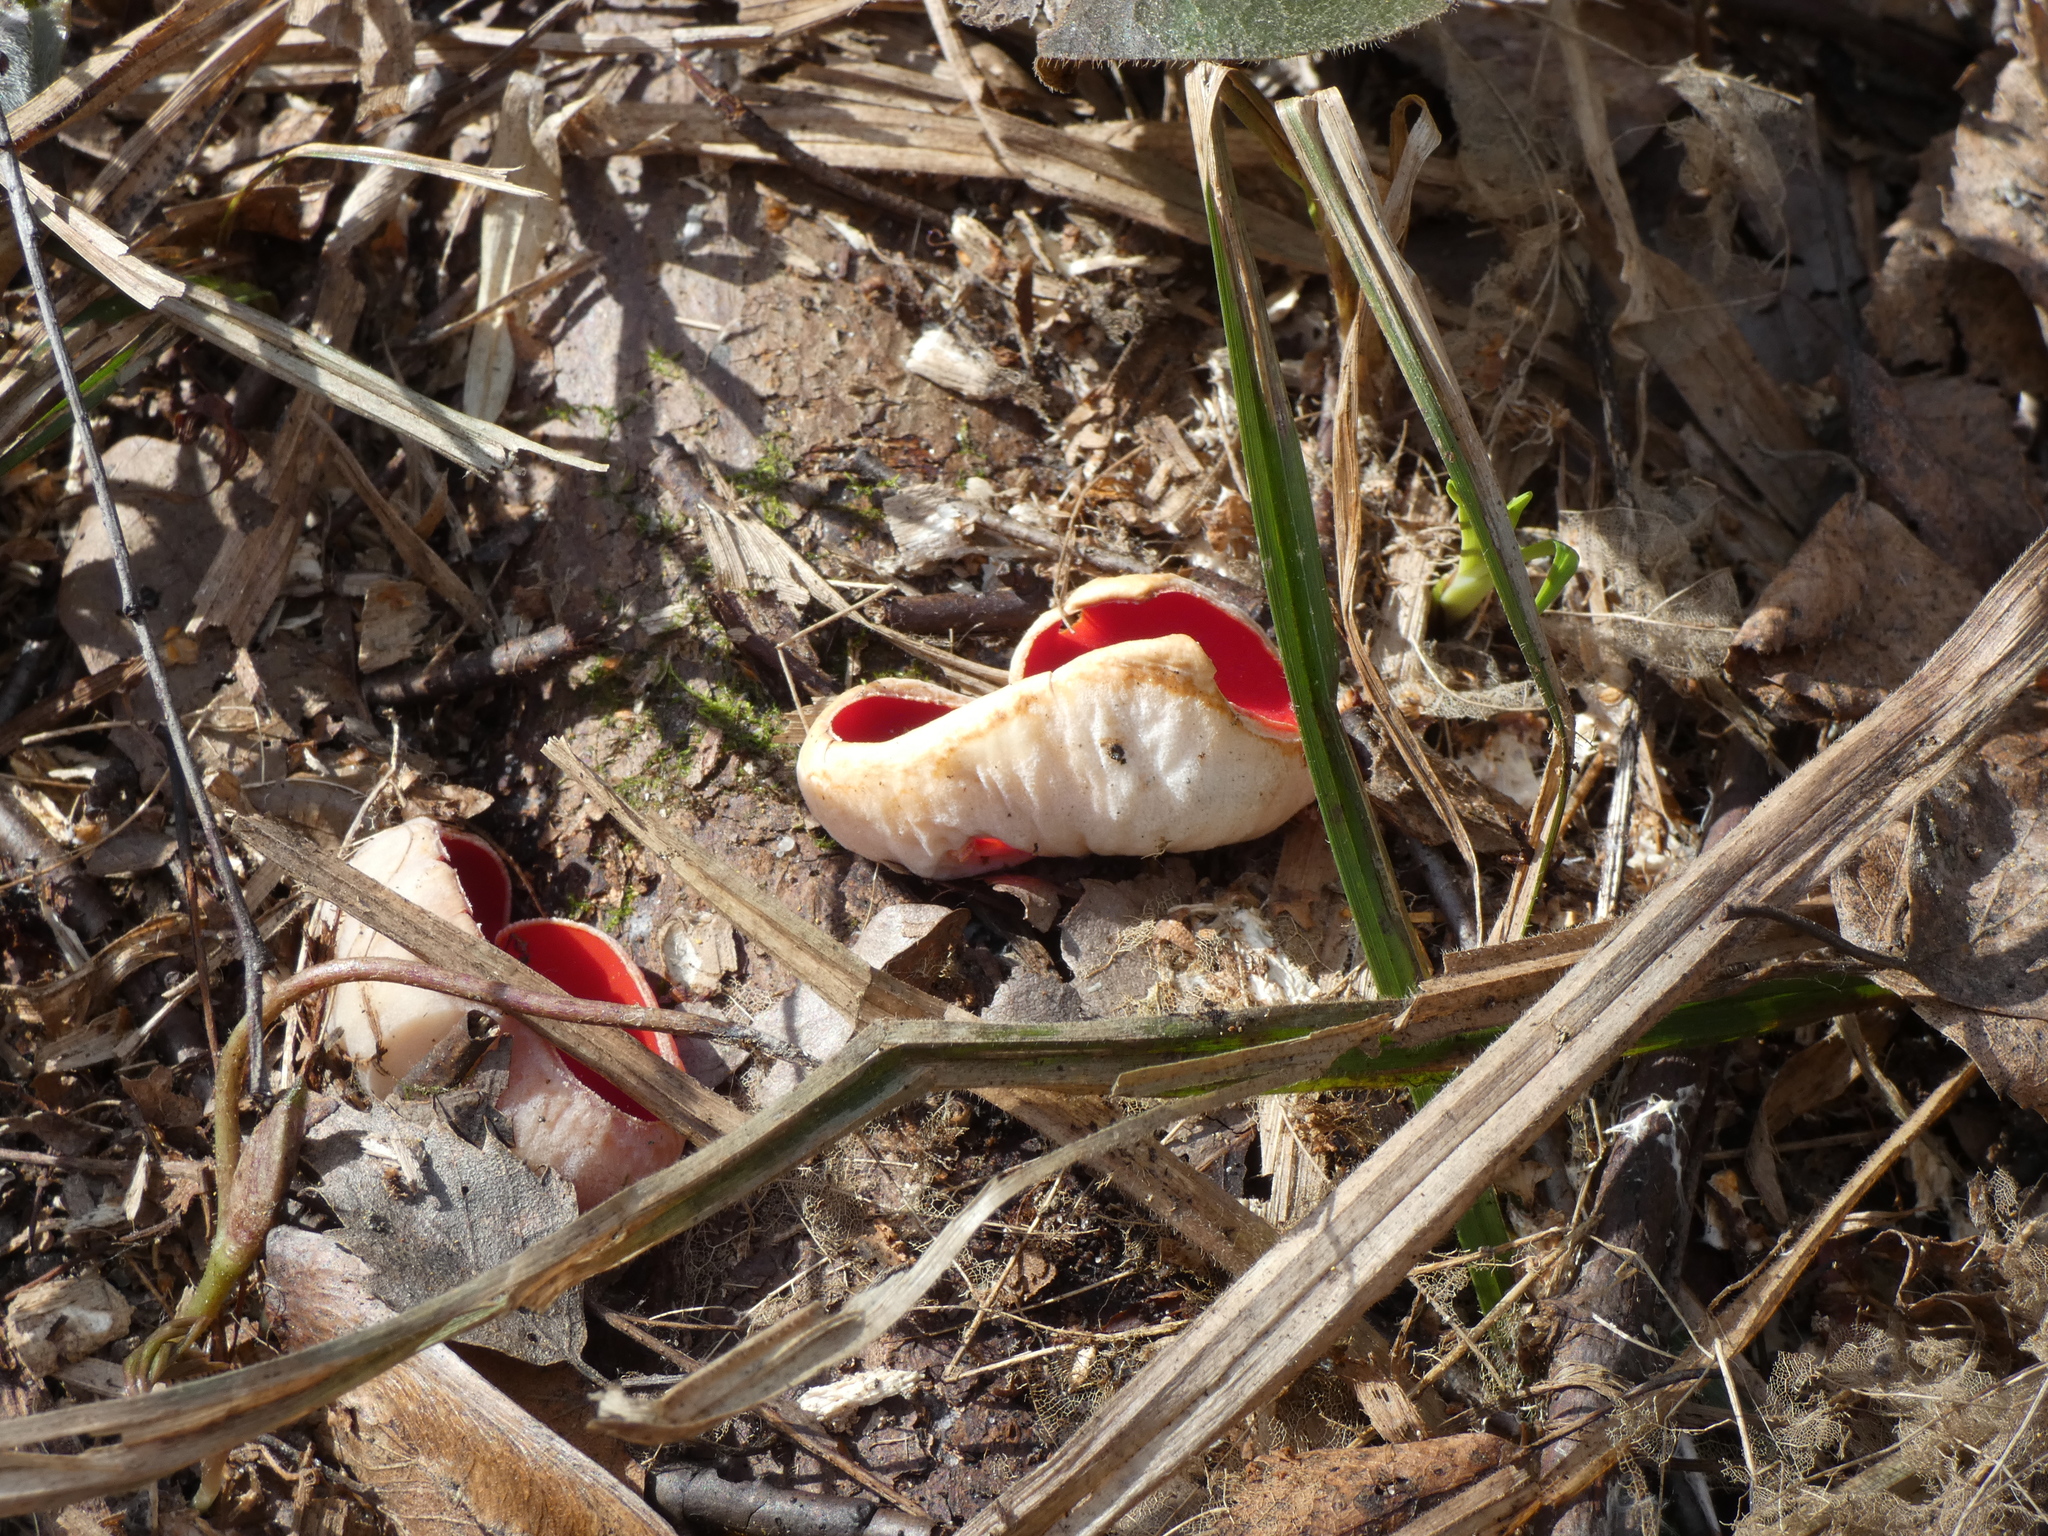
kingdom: Fungi
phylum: Ascomycota
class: Pezizomycetes
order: Pezizales
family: Sarcoscyphaceae
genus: Sarcoscypha
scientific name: Sarcoscypha austriaca
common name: Scarlet elfcup
